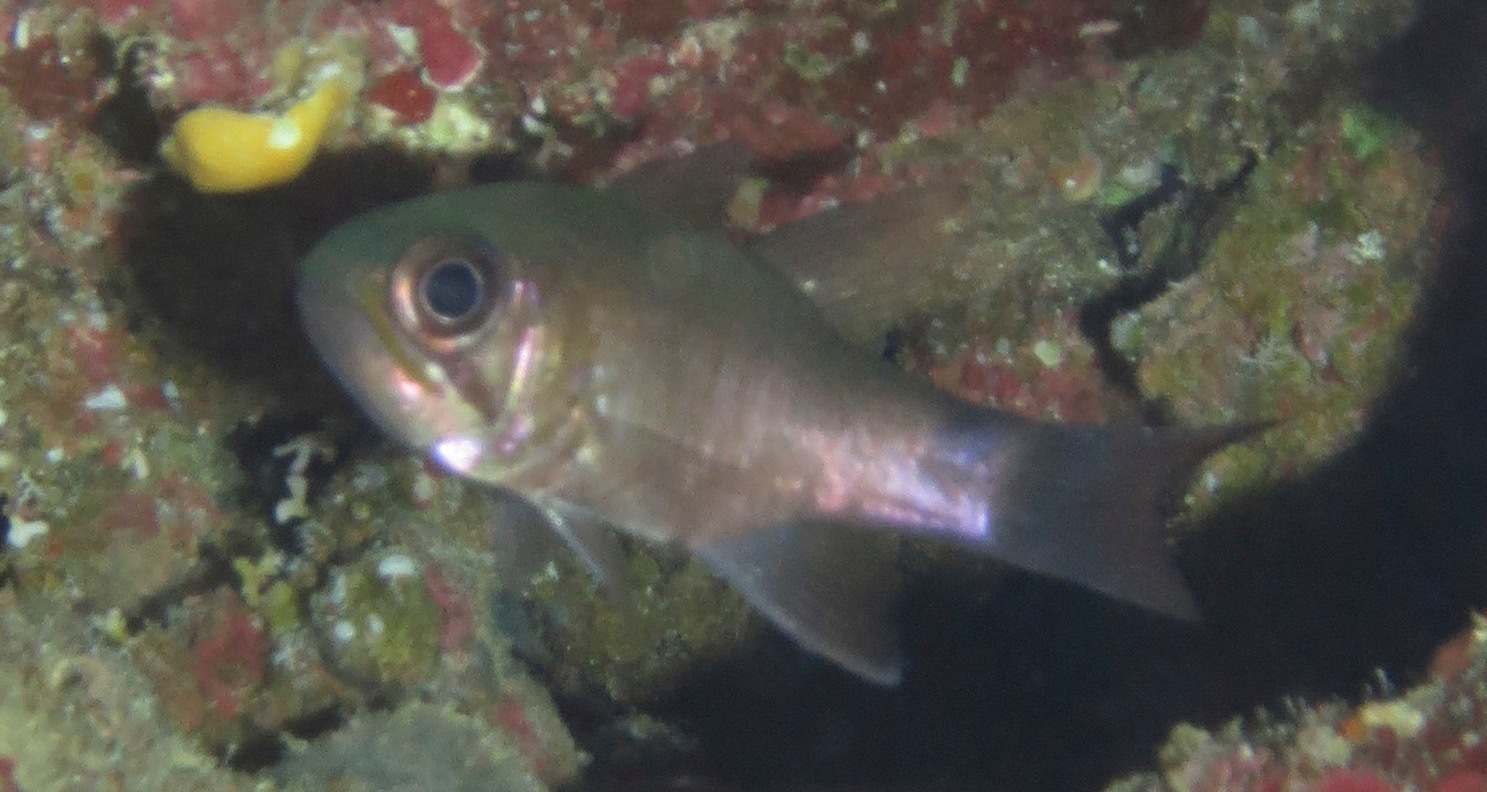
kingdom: Animalia
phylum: Chordata
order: Perciformes
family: Apogonidae
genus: Nectamia
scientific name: Nectamia savayensis
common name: Samoan cardinalfish
